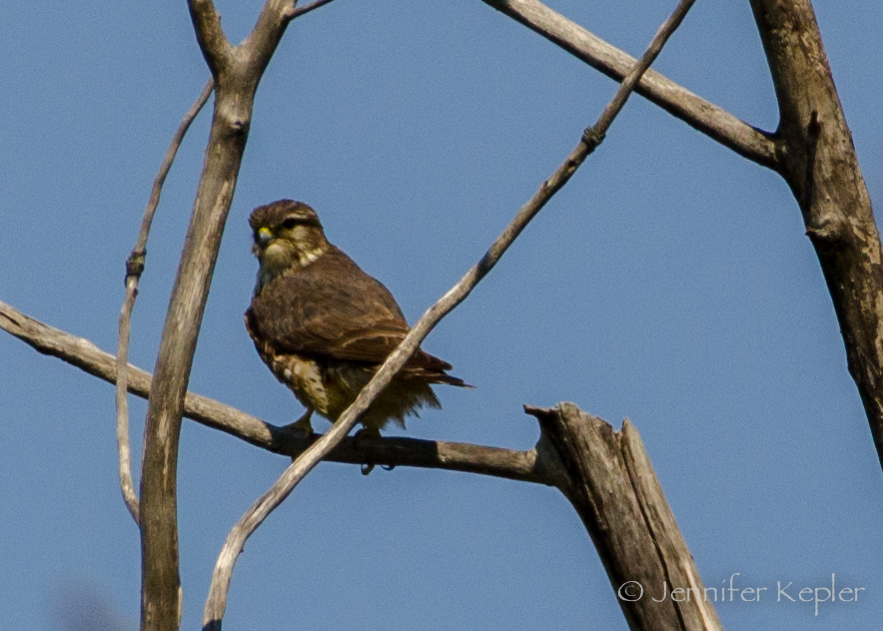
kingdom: Animalia
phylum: Chordata
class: Aves
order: Falconiformes
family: Falconidae
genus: Falco
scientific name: Falco columbarius
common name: Merlin
